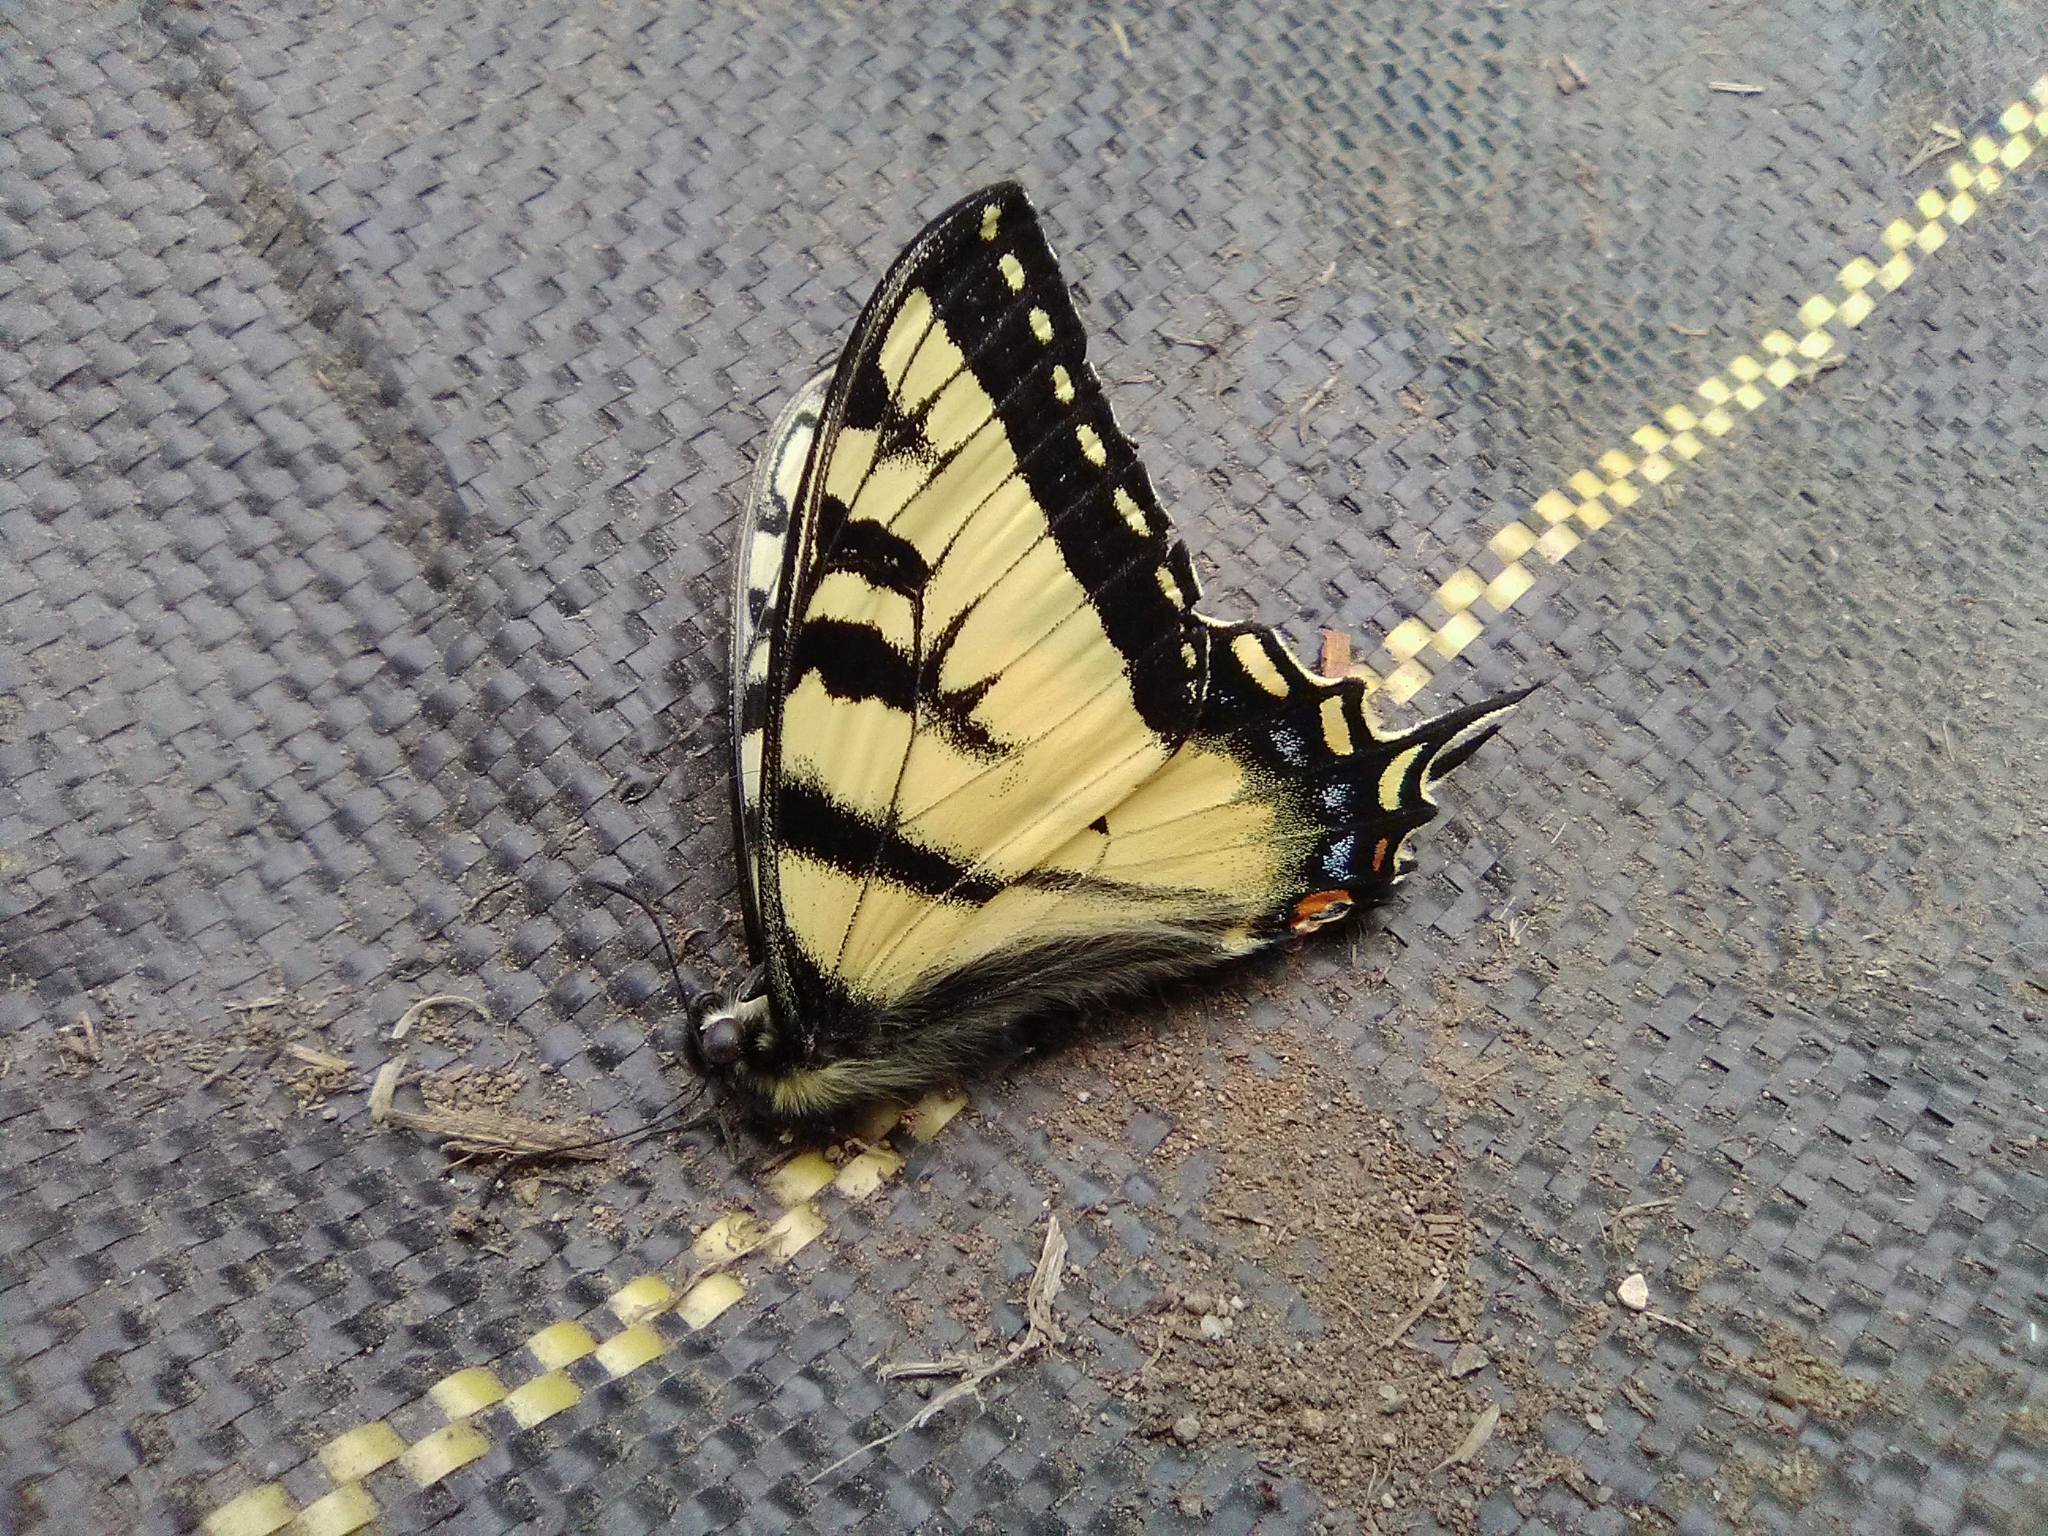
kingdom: Animalia
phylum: Arthropoda
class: Insecta
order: Lepidoptera
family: Papilionidae
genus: Papilio
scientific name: Papilio canadensis
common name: Canadian tiger swallowtail
